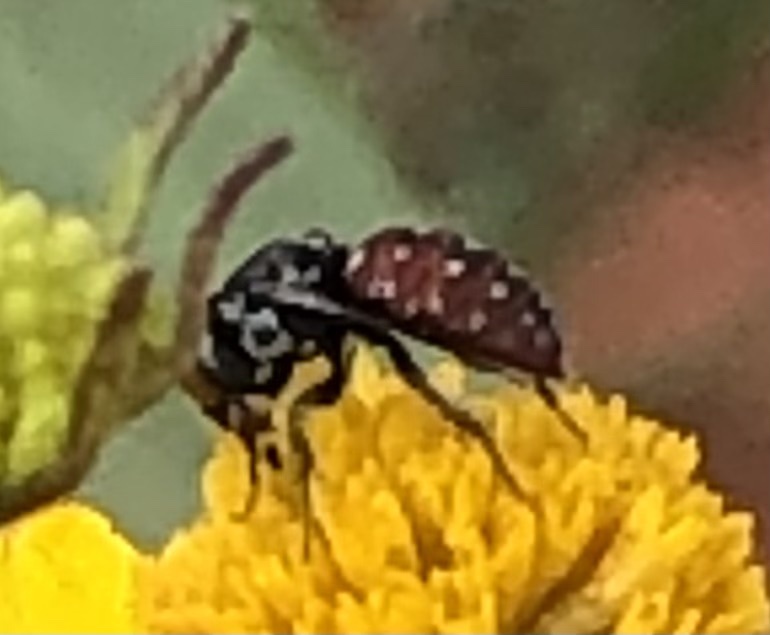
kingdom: Animalia
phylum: Arthropoda
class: Insecta
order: Hymenoptera
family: Apidae
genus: Holcopasites
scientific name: Holcopasites calliopsidis
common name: Calliopsis cuckoo nomad bee
